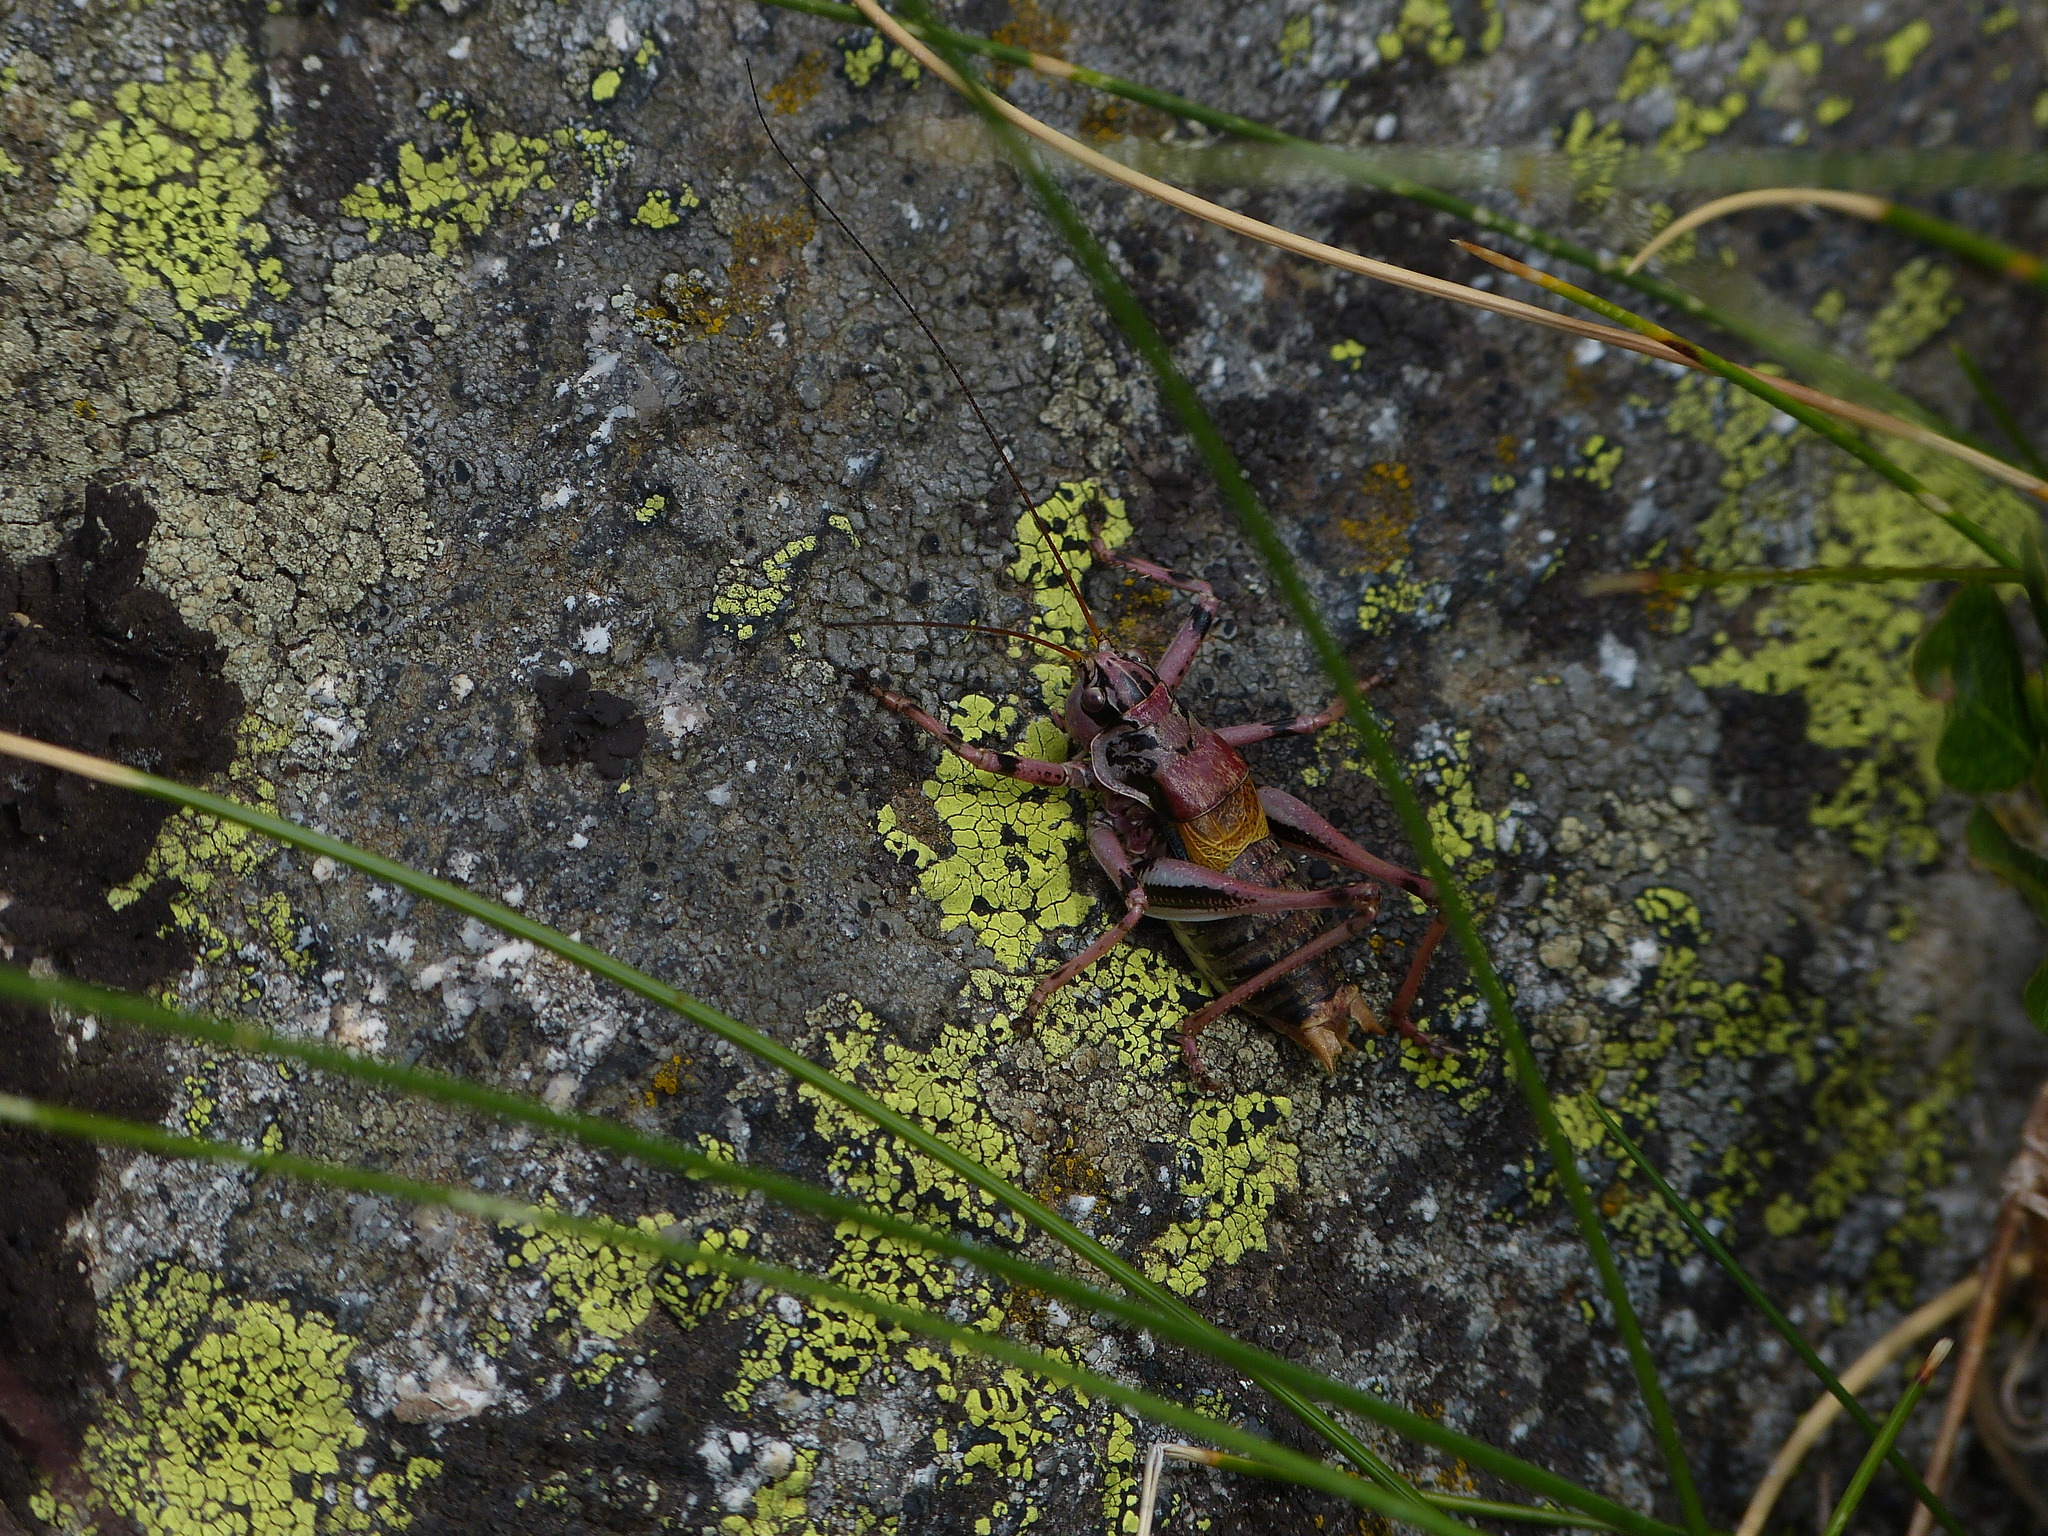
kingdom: Animalia
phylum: Arthropoda
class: Insecta
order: Orthoptera
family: Tettigoniidae
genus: Antaxius
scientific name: Antaxius hispanicus
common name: Pyrenean bush-cricket
